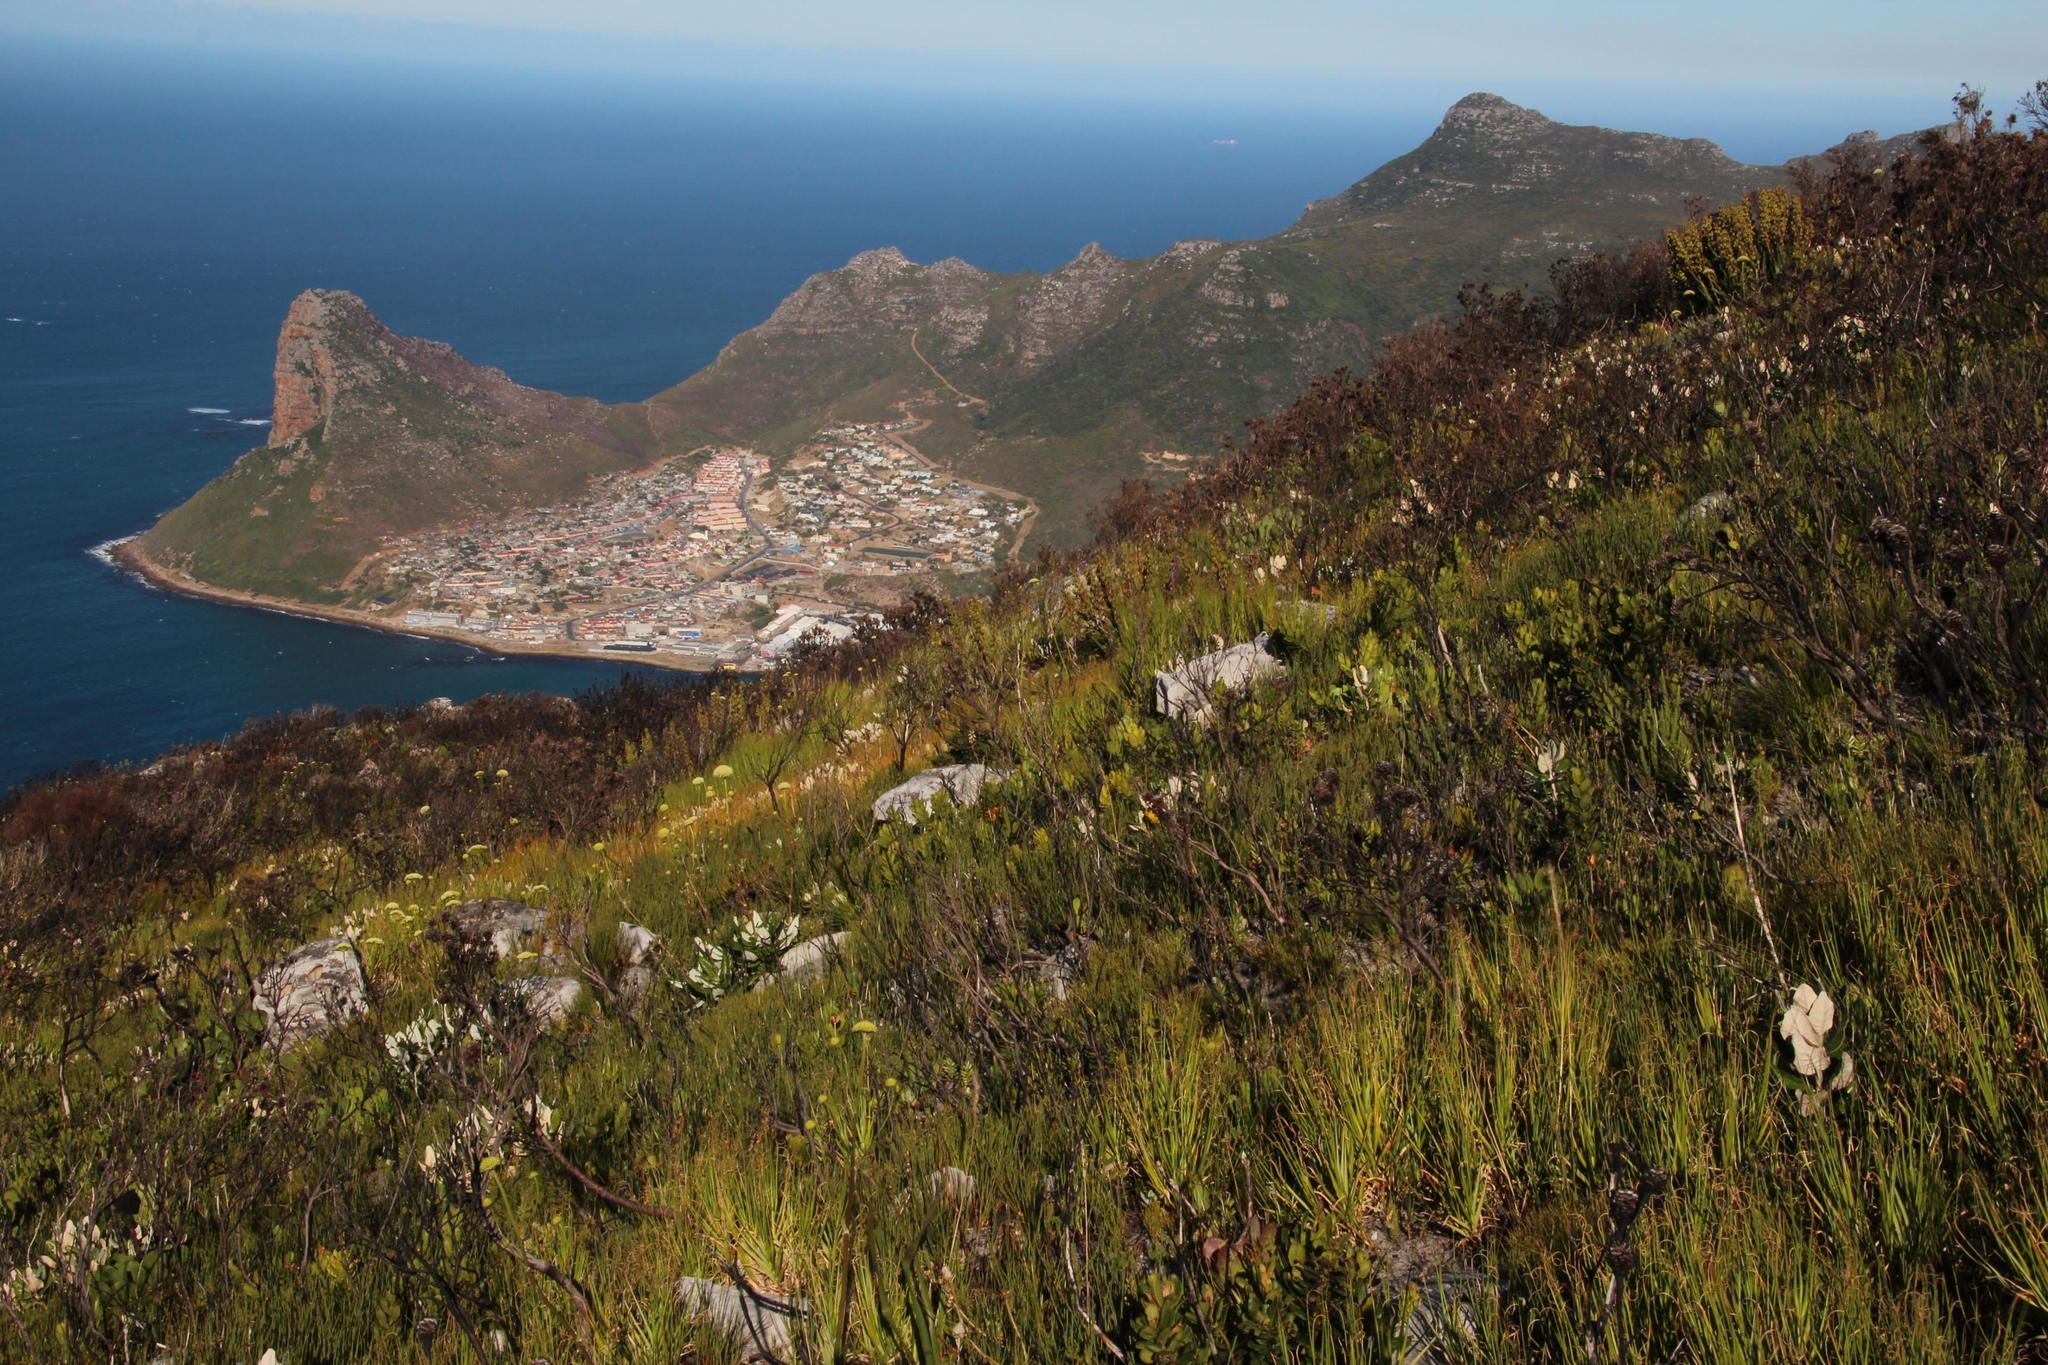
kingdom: Plantae
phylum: Tracheophyta
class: Magnoliopsida
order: Apiales
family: Apiaceae
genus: Hermas
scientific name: Hermas villosa
